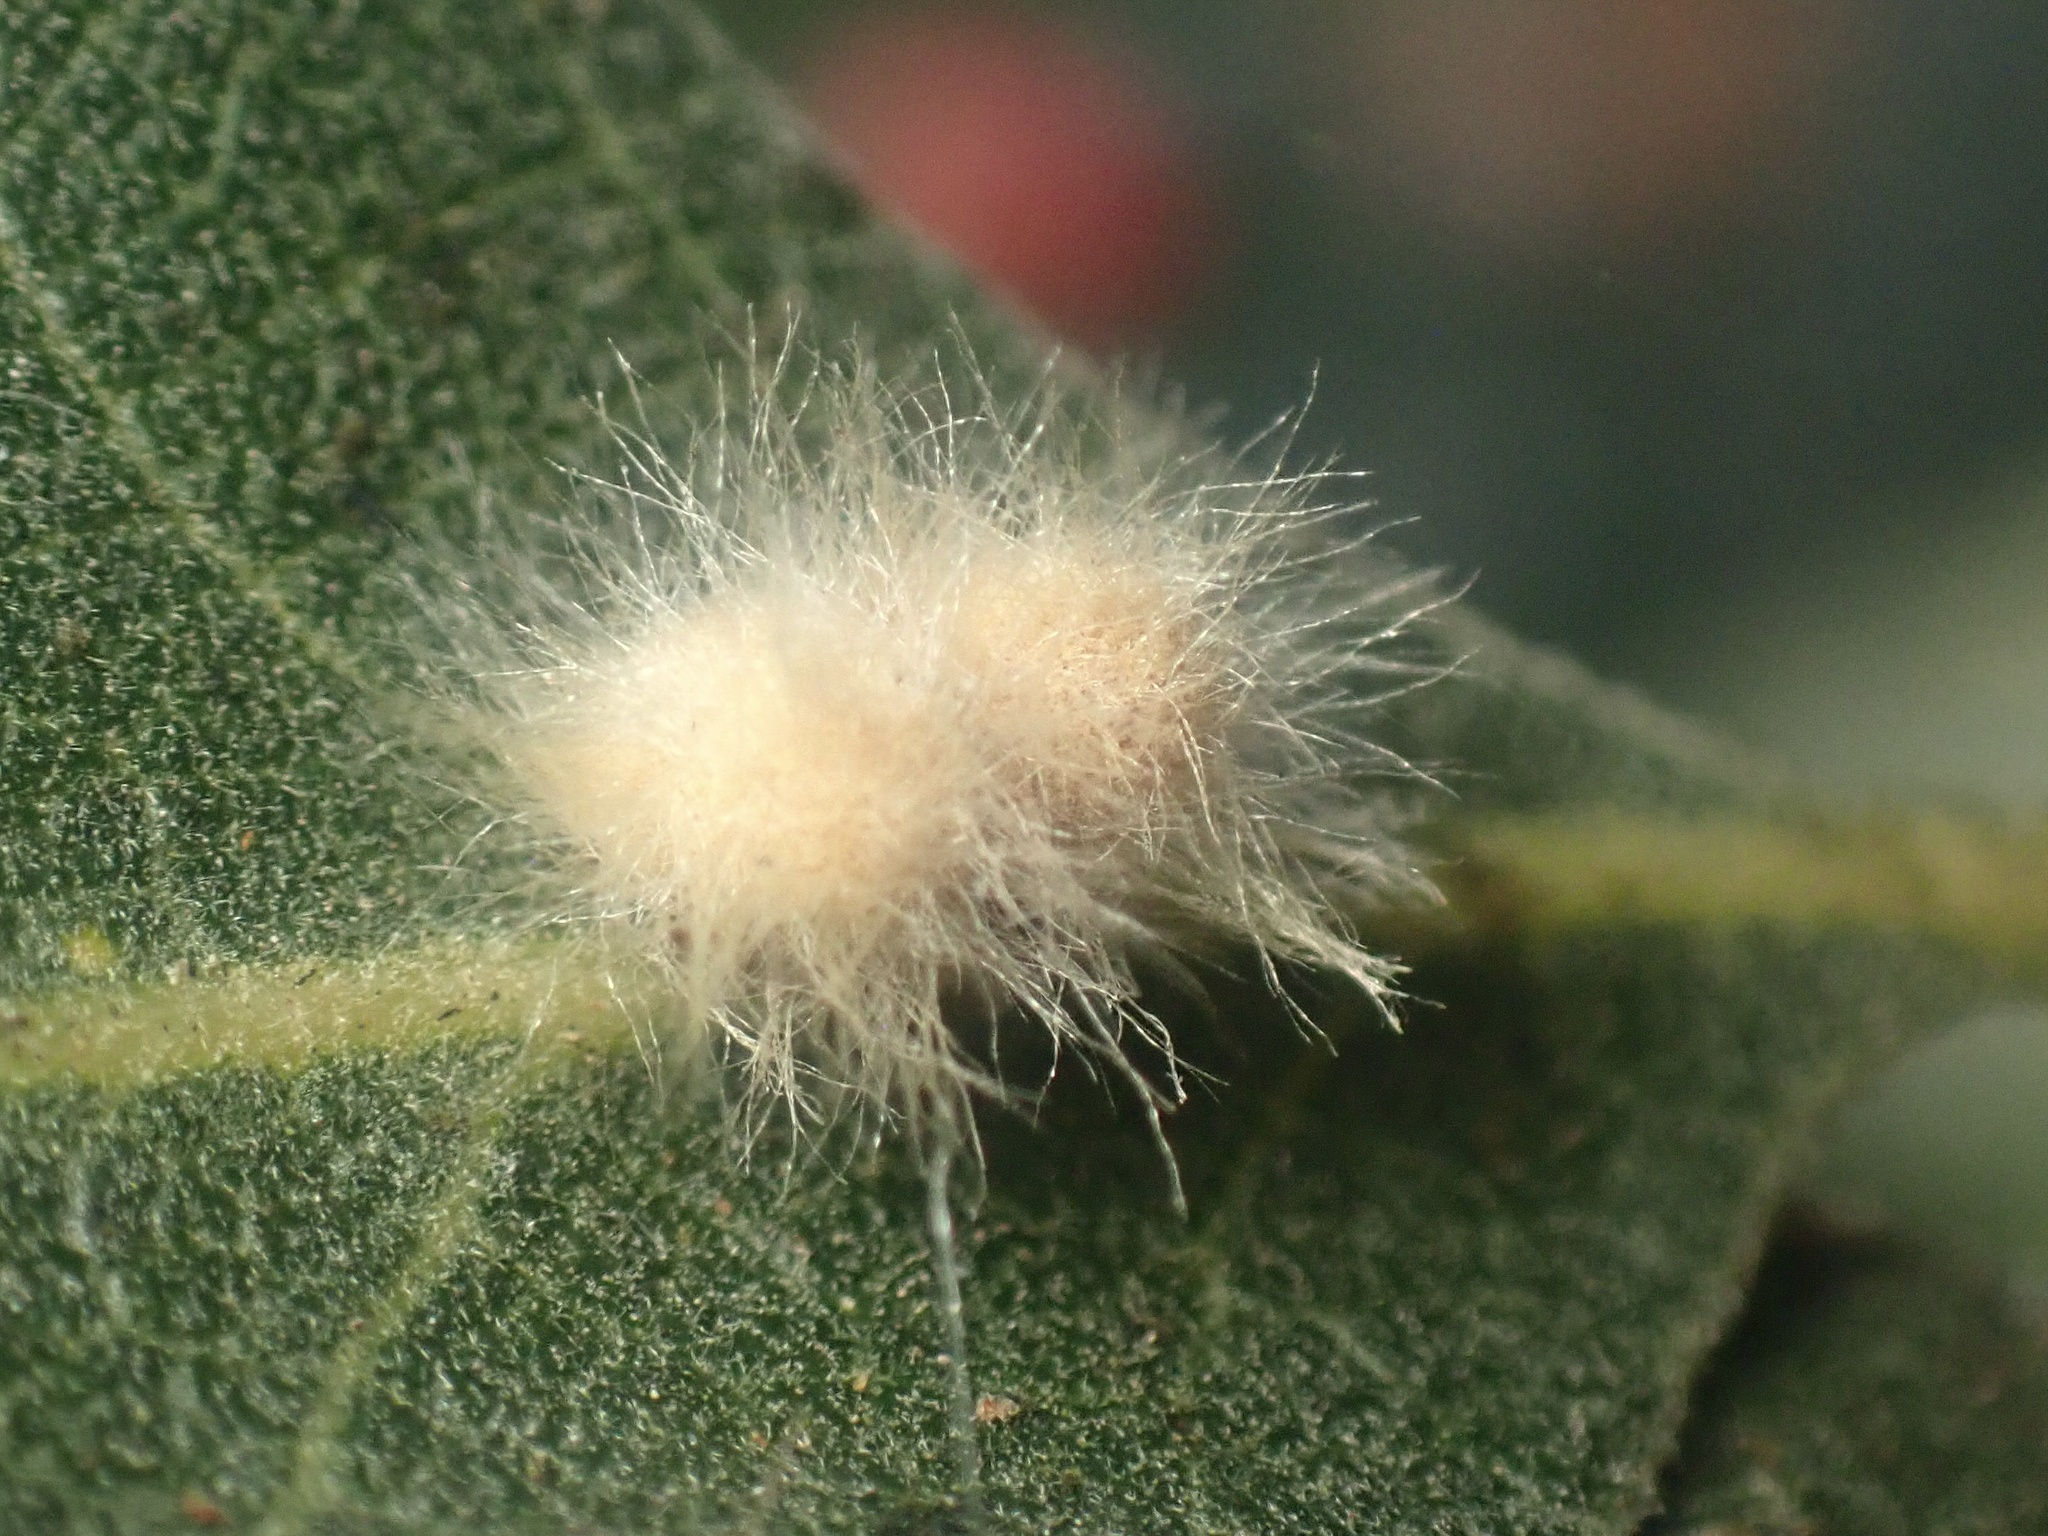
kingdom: Animalia
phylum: Arthropoda
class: Insecta
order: Hymenoptera
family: Cynipidae
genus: Andricus
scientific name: Andricus Druon fullawayi
